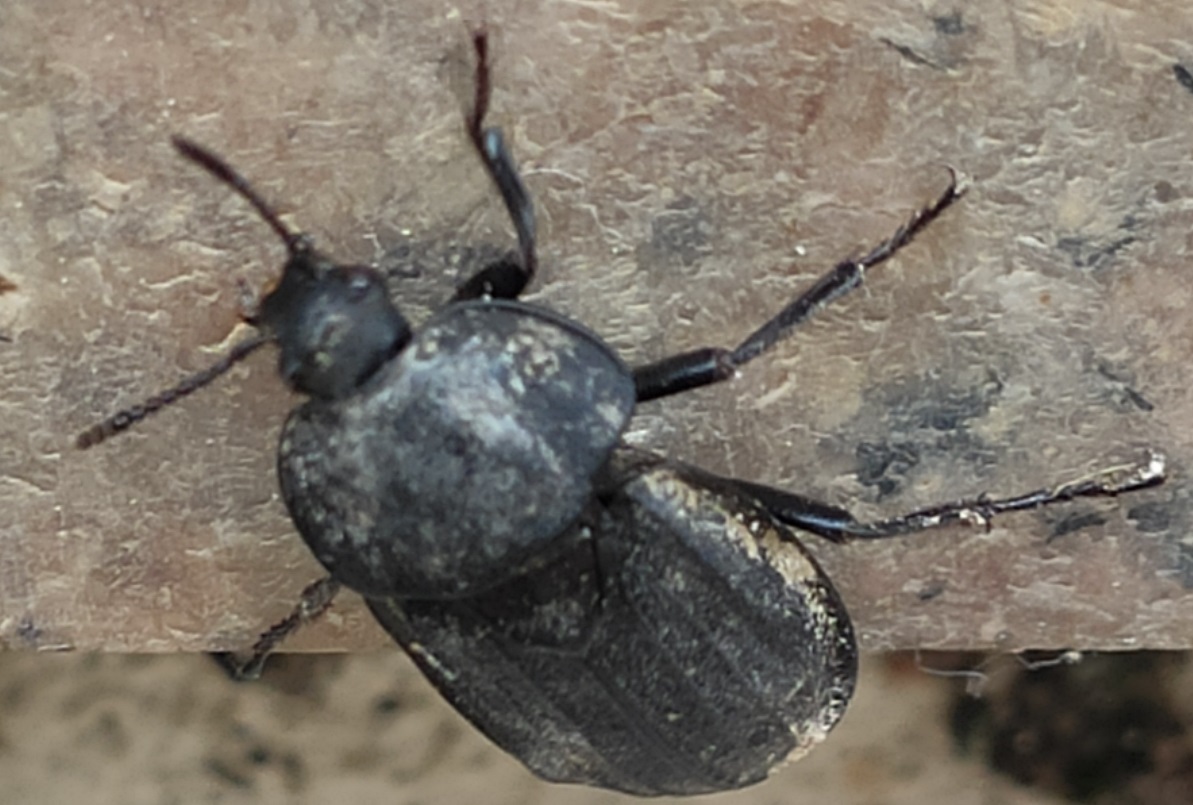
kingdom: Animalia
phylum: Arthropoda
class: Insecta
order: Coleoptera
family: Staphylinidae
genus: Silpha
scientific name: Silpha puncticollis
